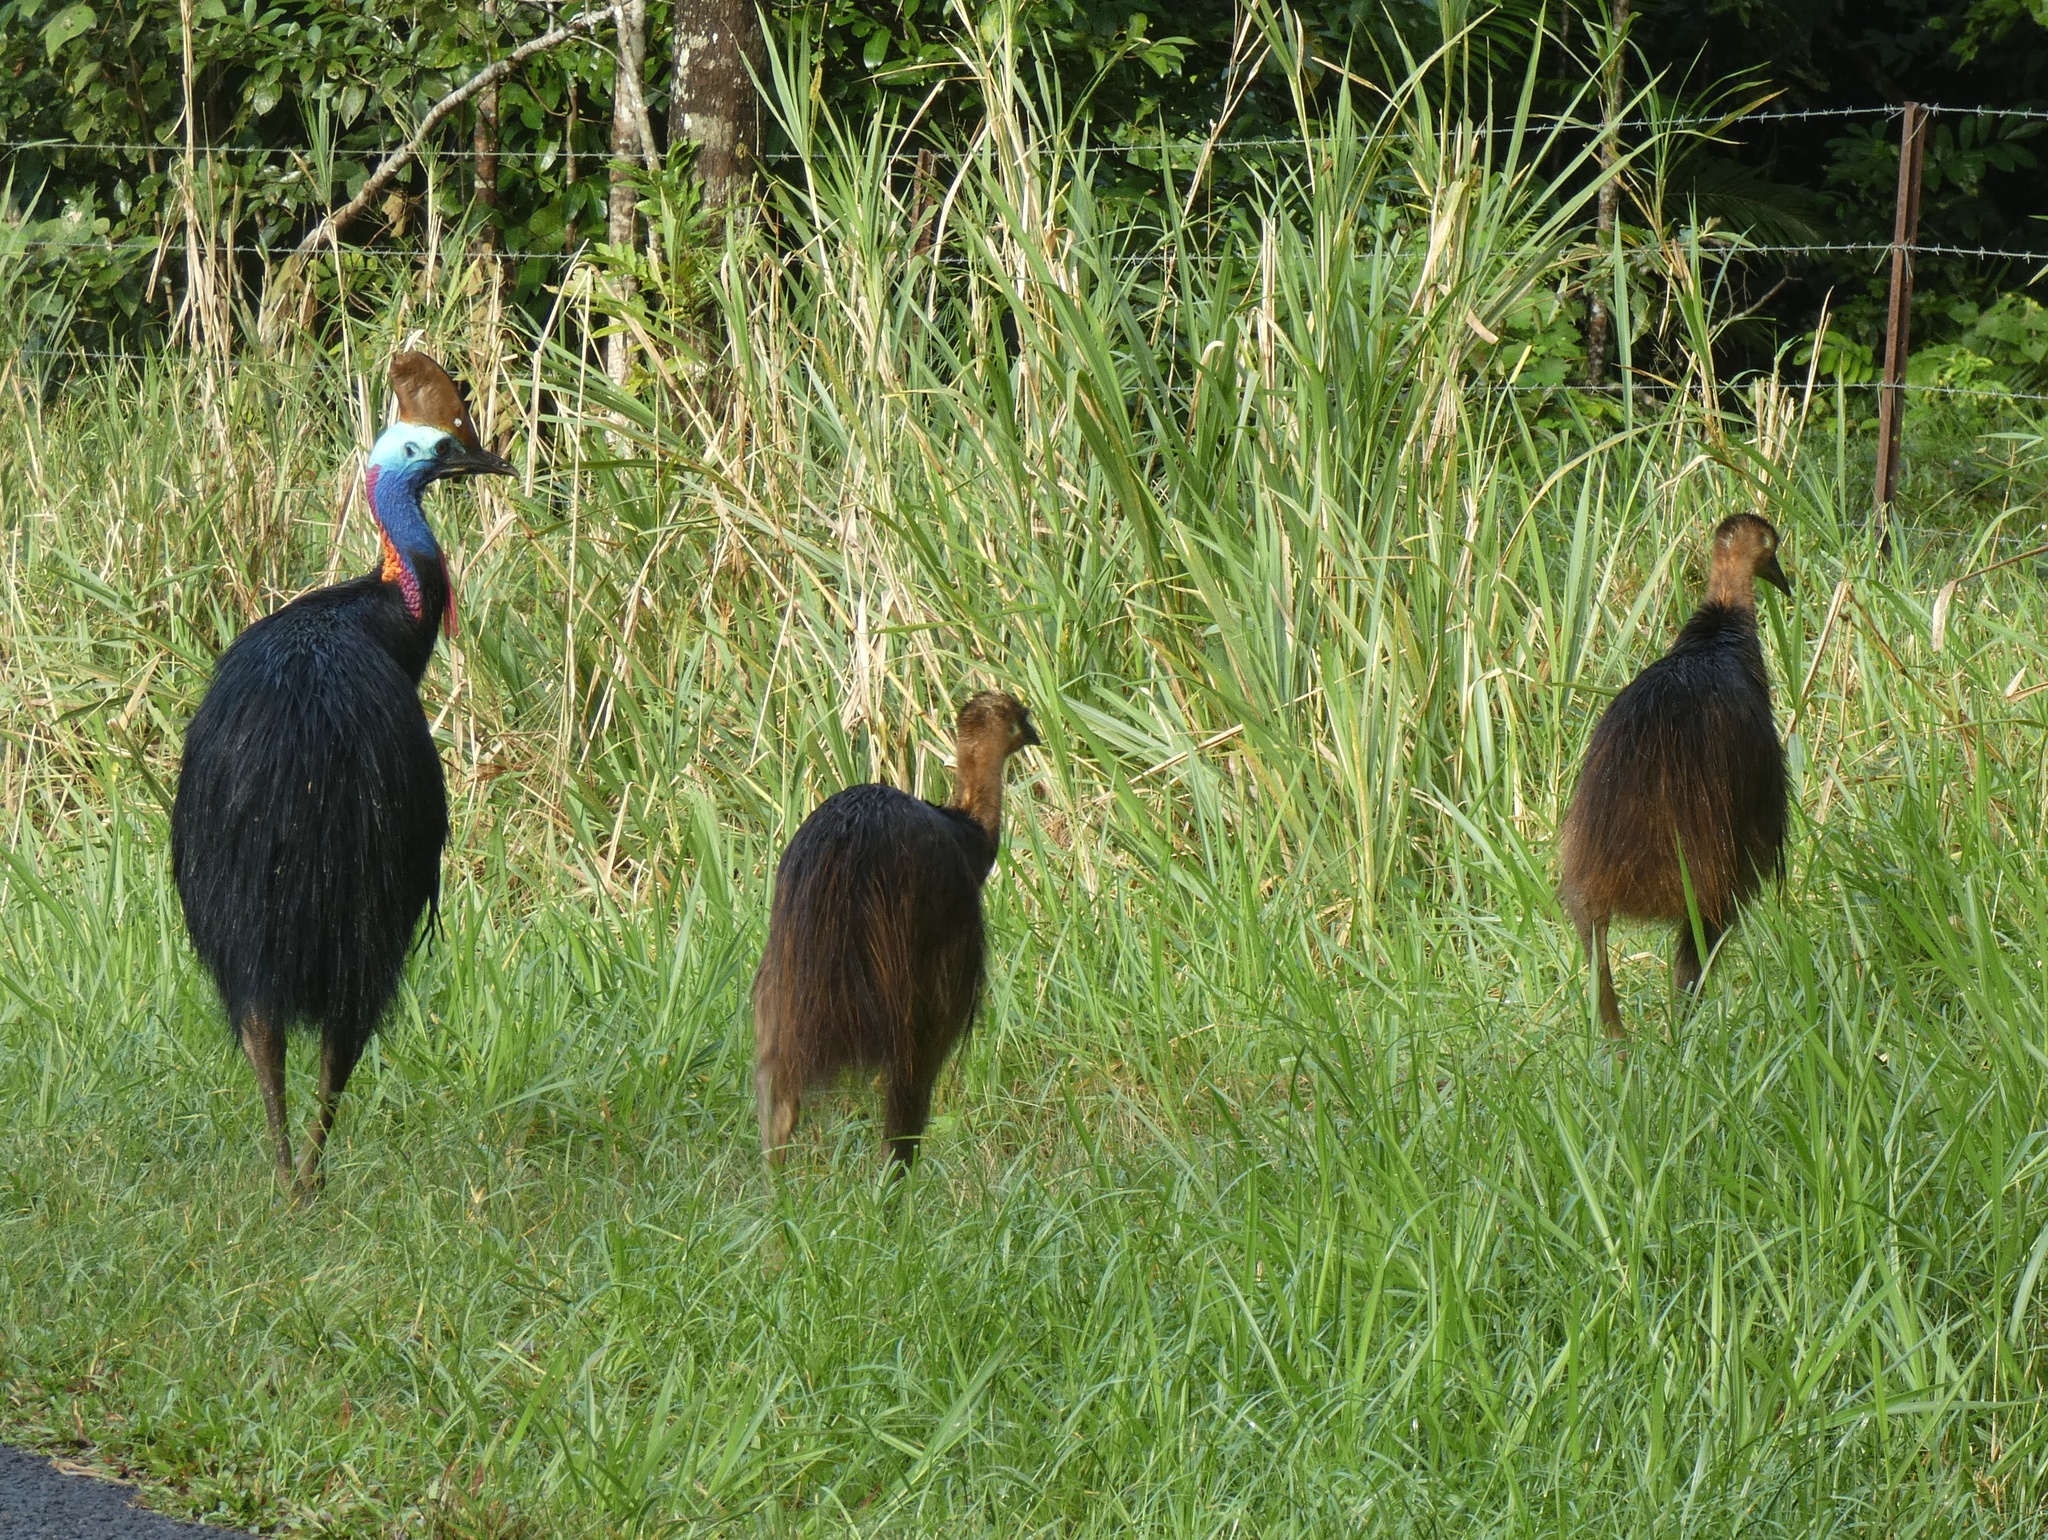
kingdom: Animalia
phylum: Chordata
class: Aves
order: Casuariiformes
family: Casuariidae
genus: Casuarius
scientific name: Casuarius casuarius
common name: Southern cassowary
